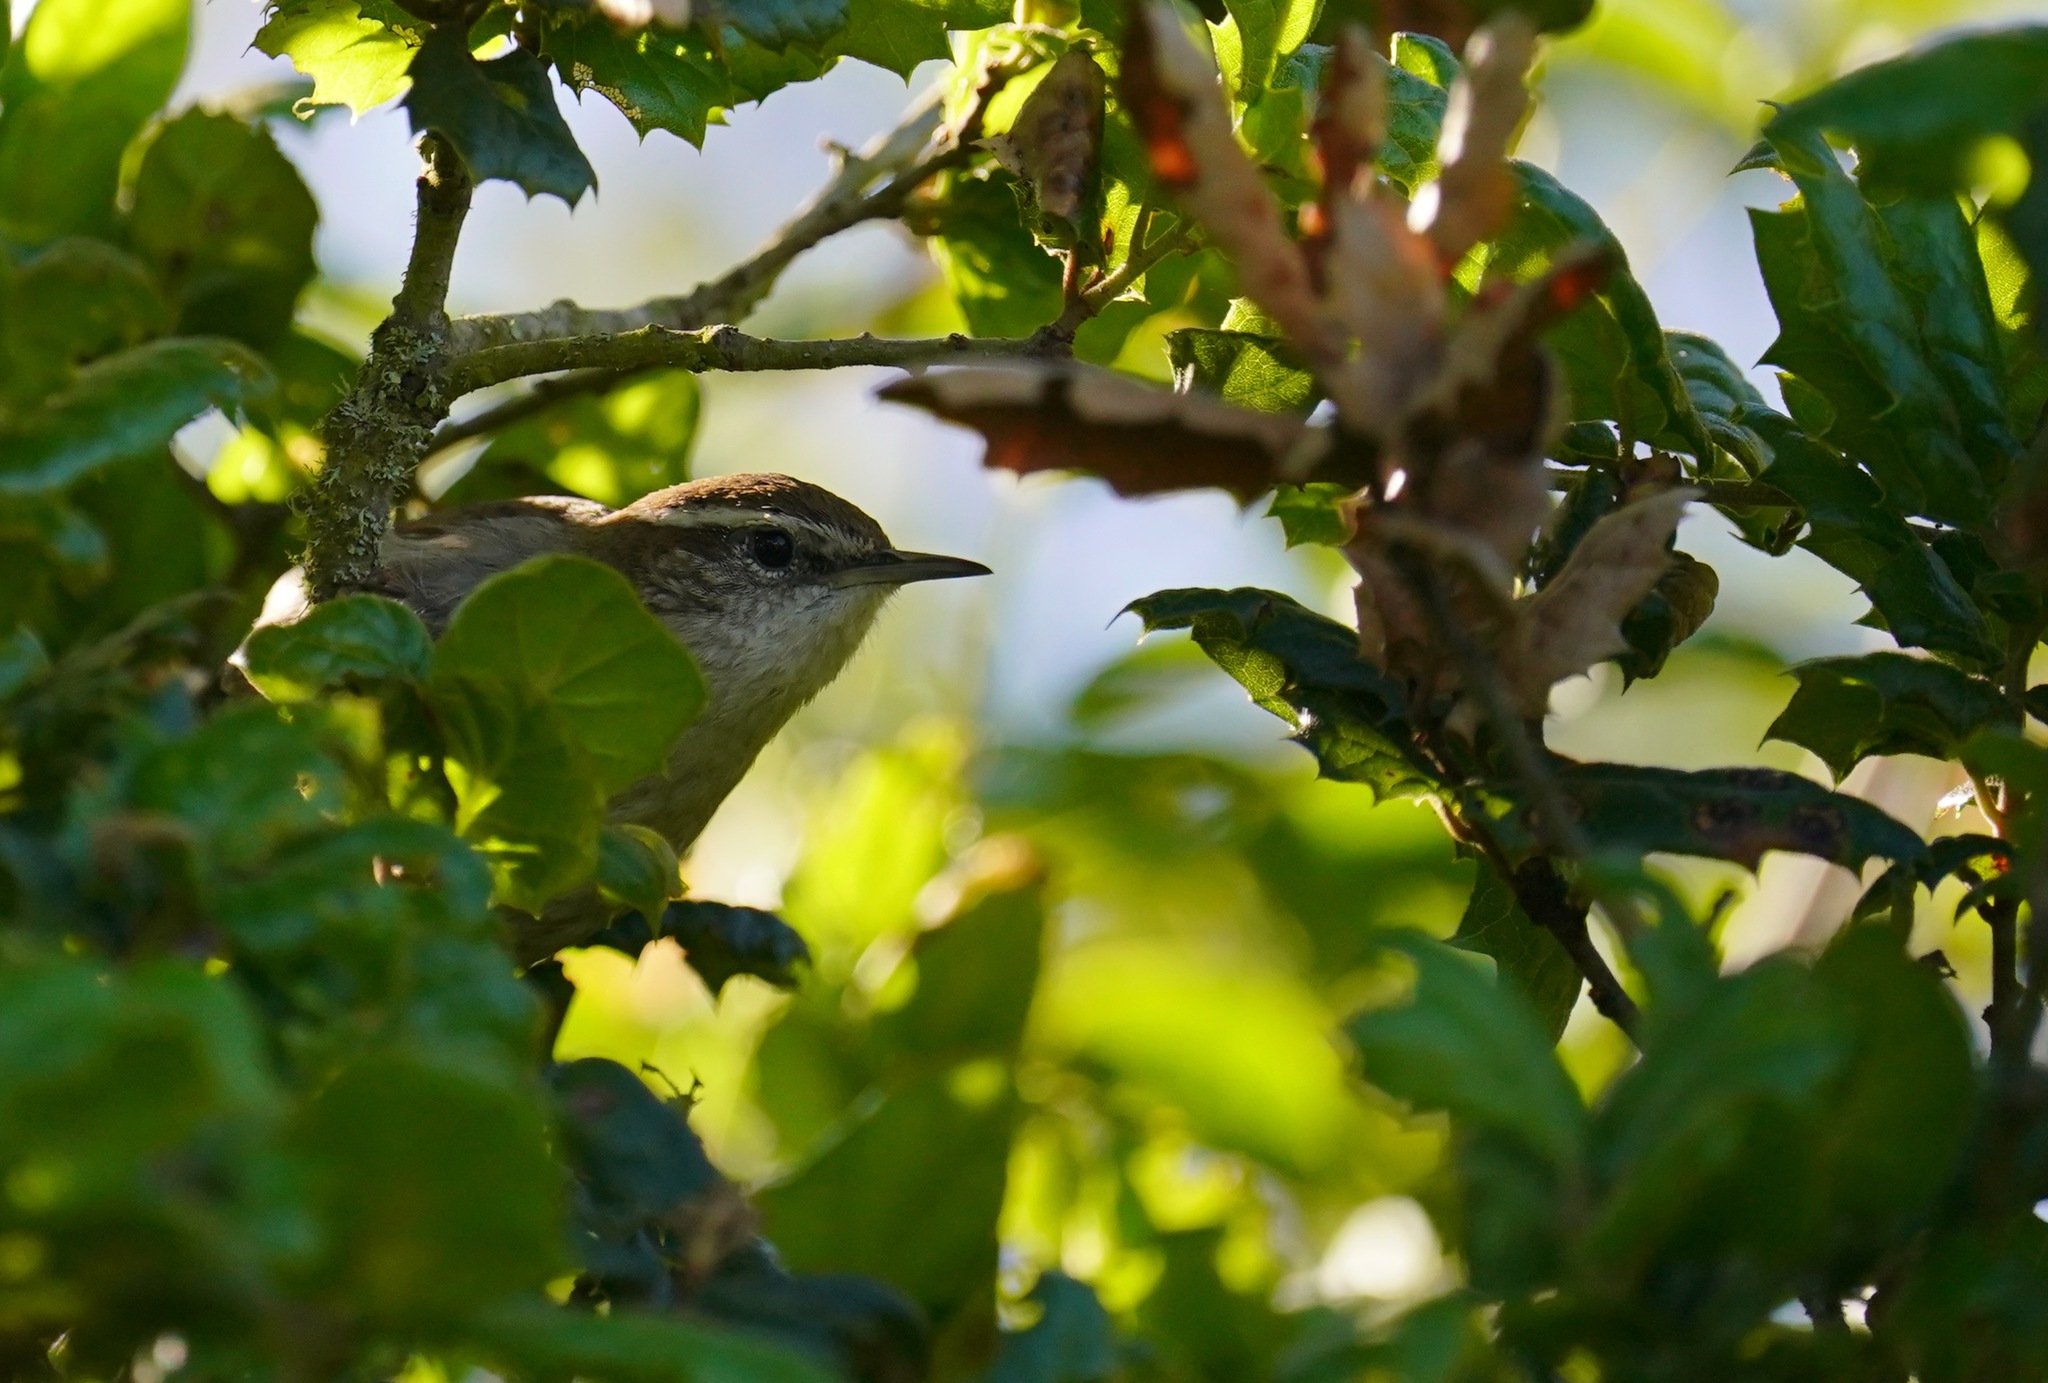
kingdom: Animalia
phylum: Chordata
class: Aves
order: Passeriformes
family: Troglodytidae
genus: Thryomanes
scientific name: Thryomanes bewickii
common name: Bewick's wren
